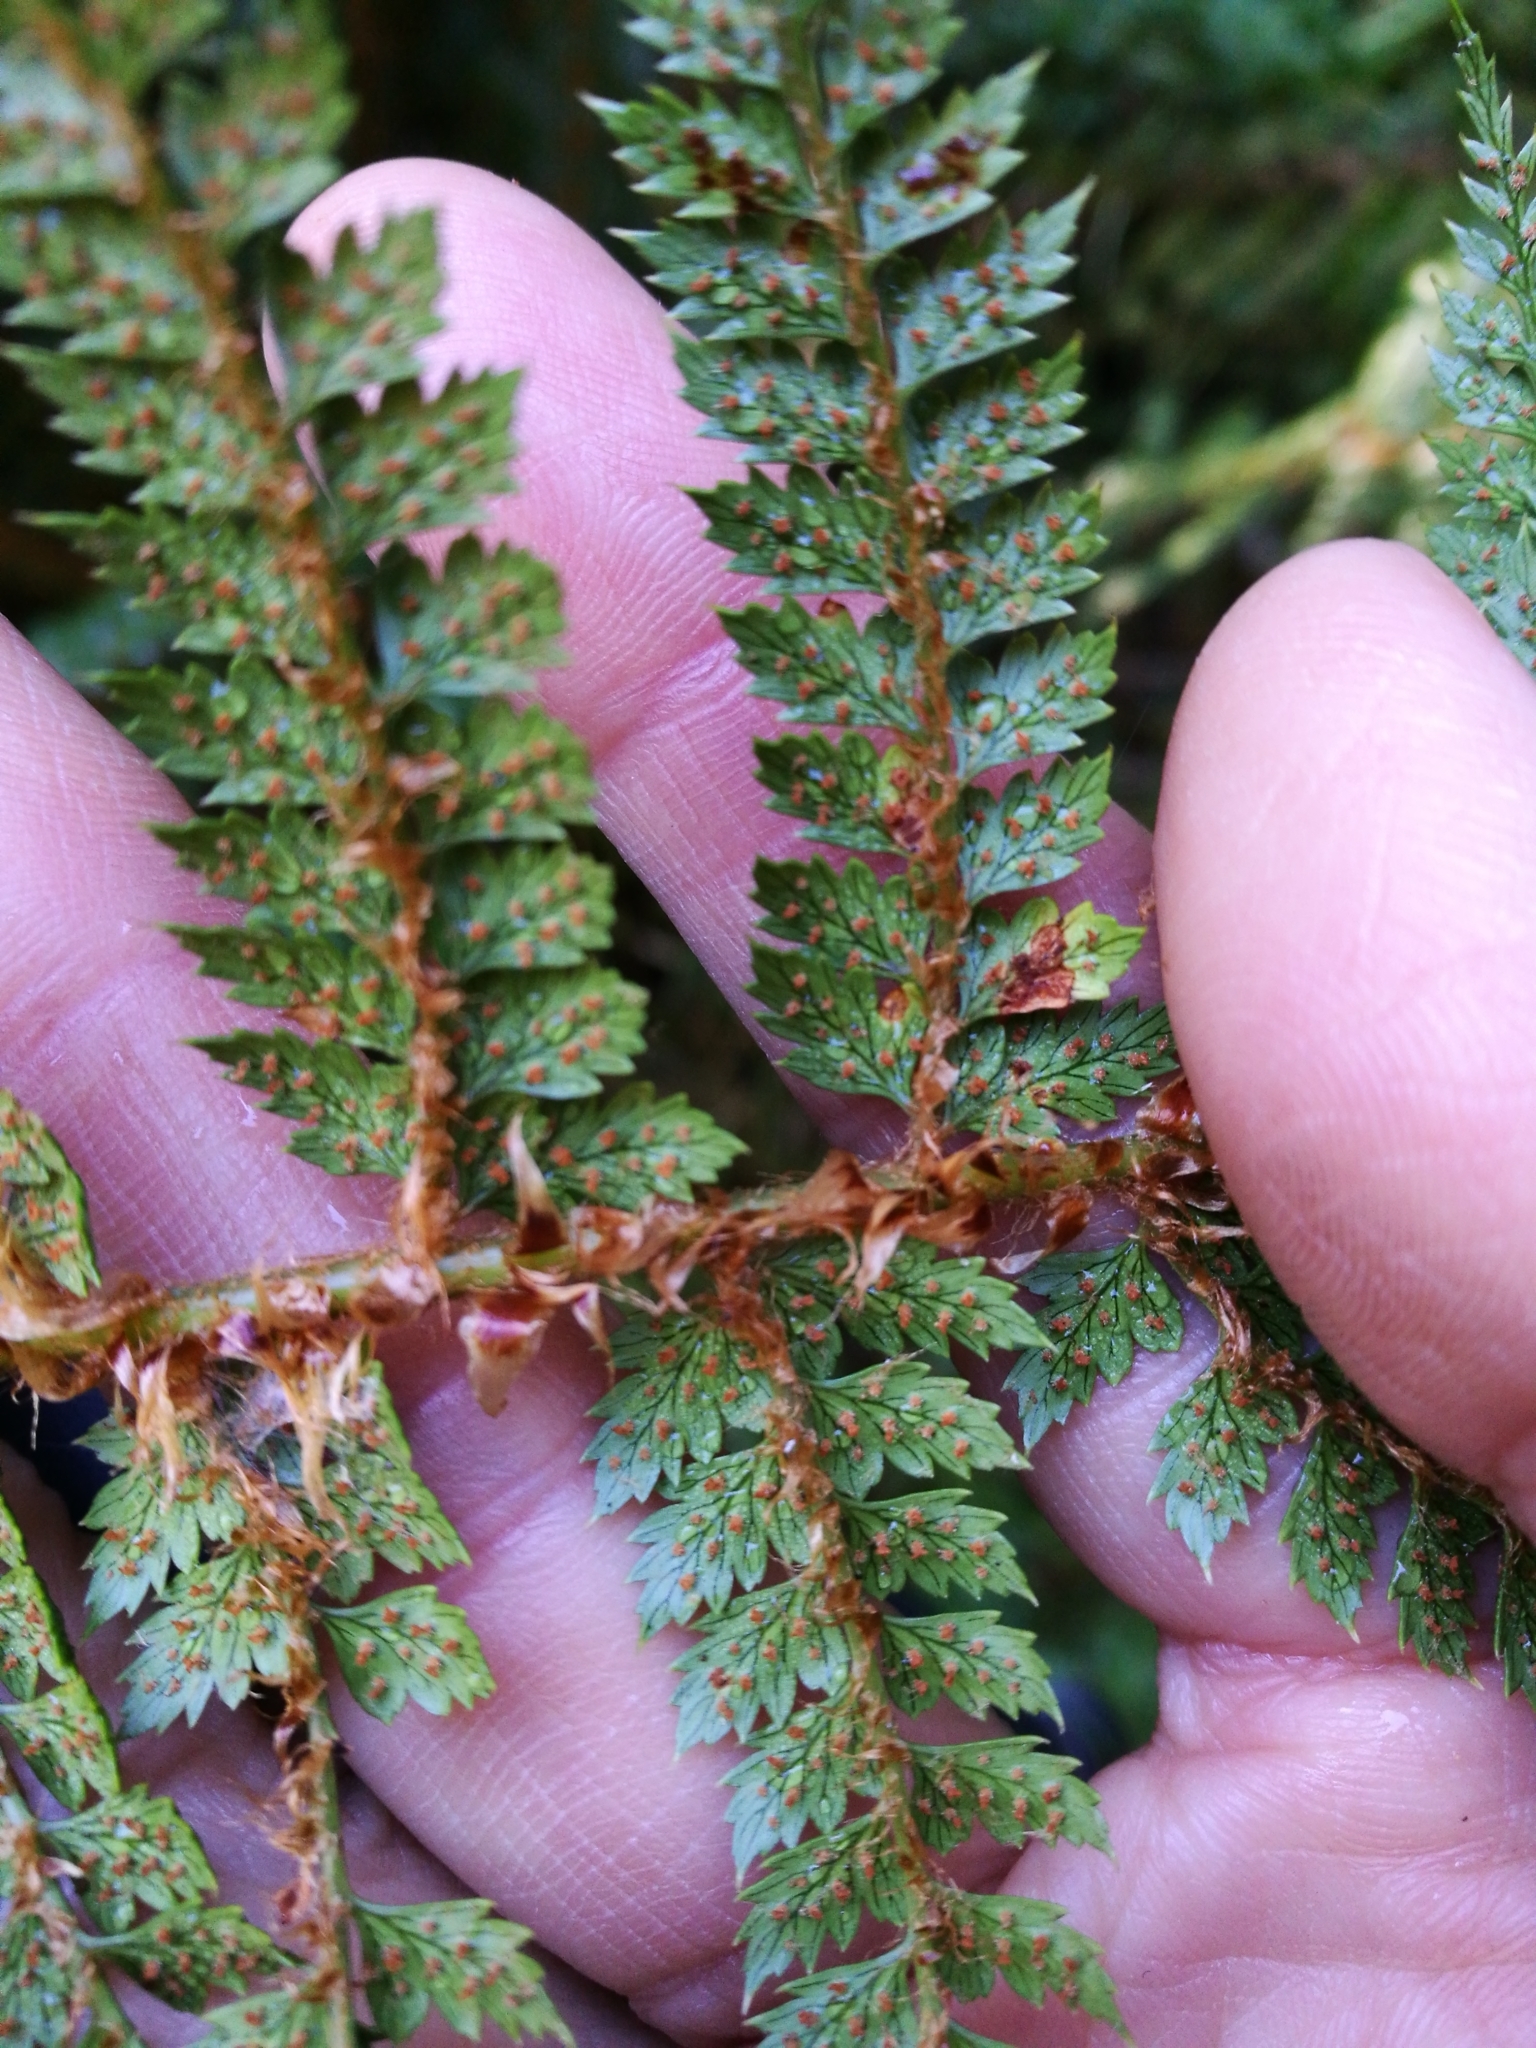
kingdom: Plantae
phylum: Tracheophyta
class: Polypodiopsida
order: Polypodiales
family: Dryopteridaceae
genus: Polystichum
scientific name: Polystichum vestitum
